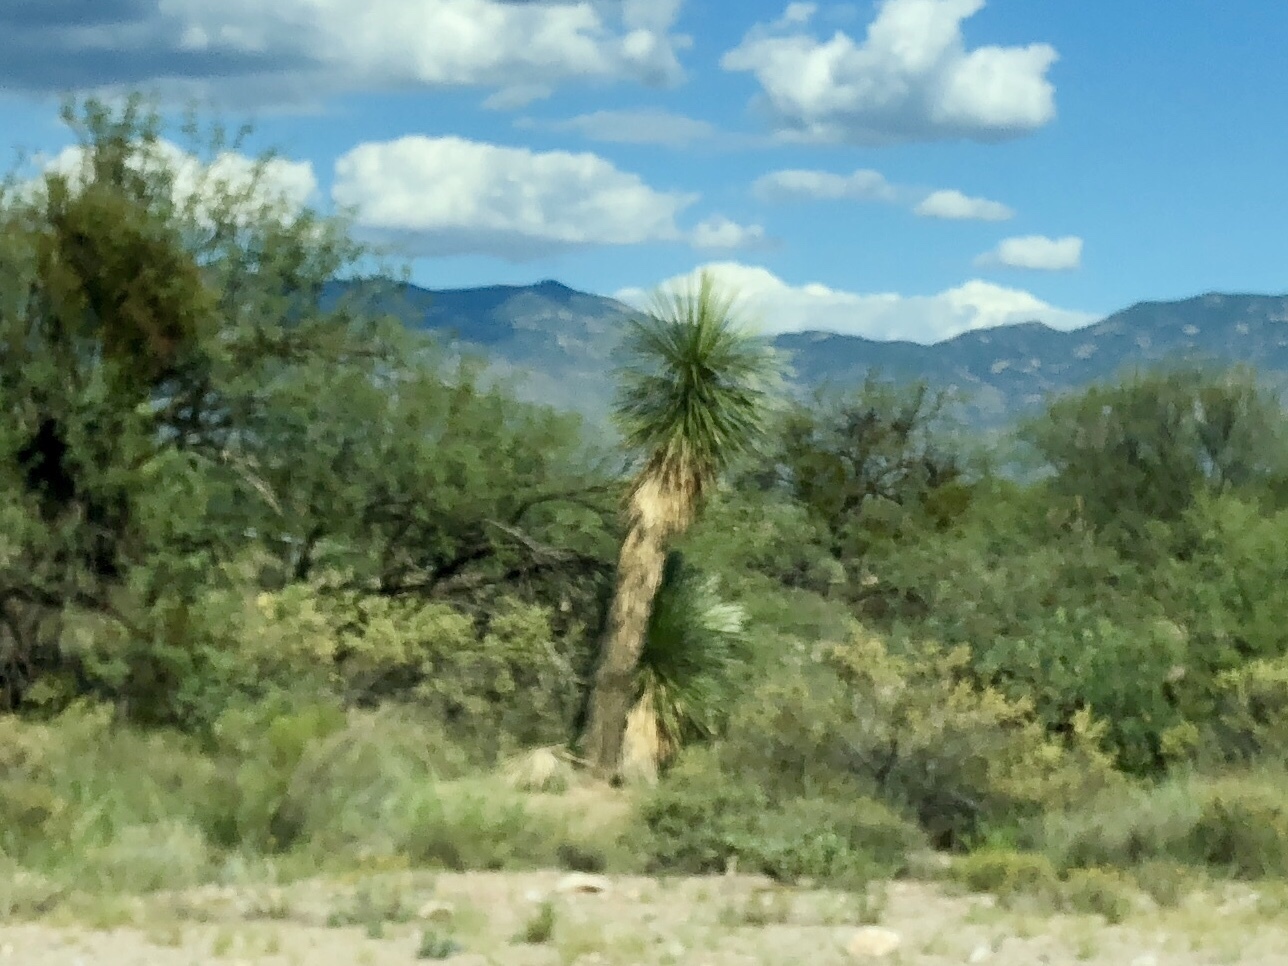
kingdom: Plantae
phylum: Tracheophyta
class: Liliopsida
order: Asparagales
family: Asparagaceae
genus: Yucca
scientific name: Yucca elata
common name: Palmella
